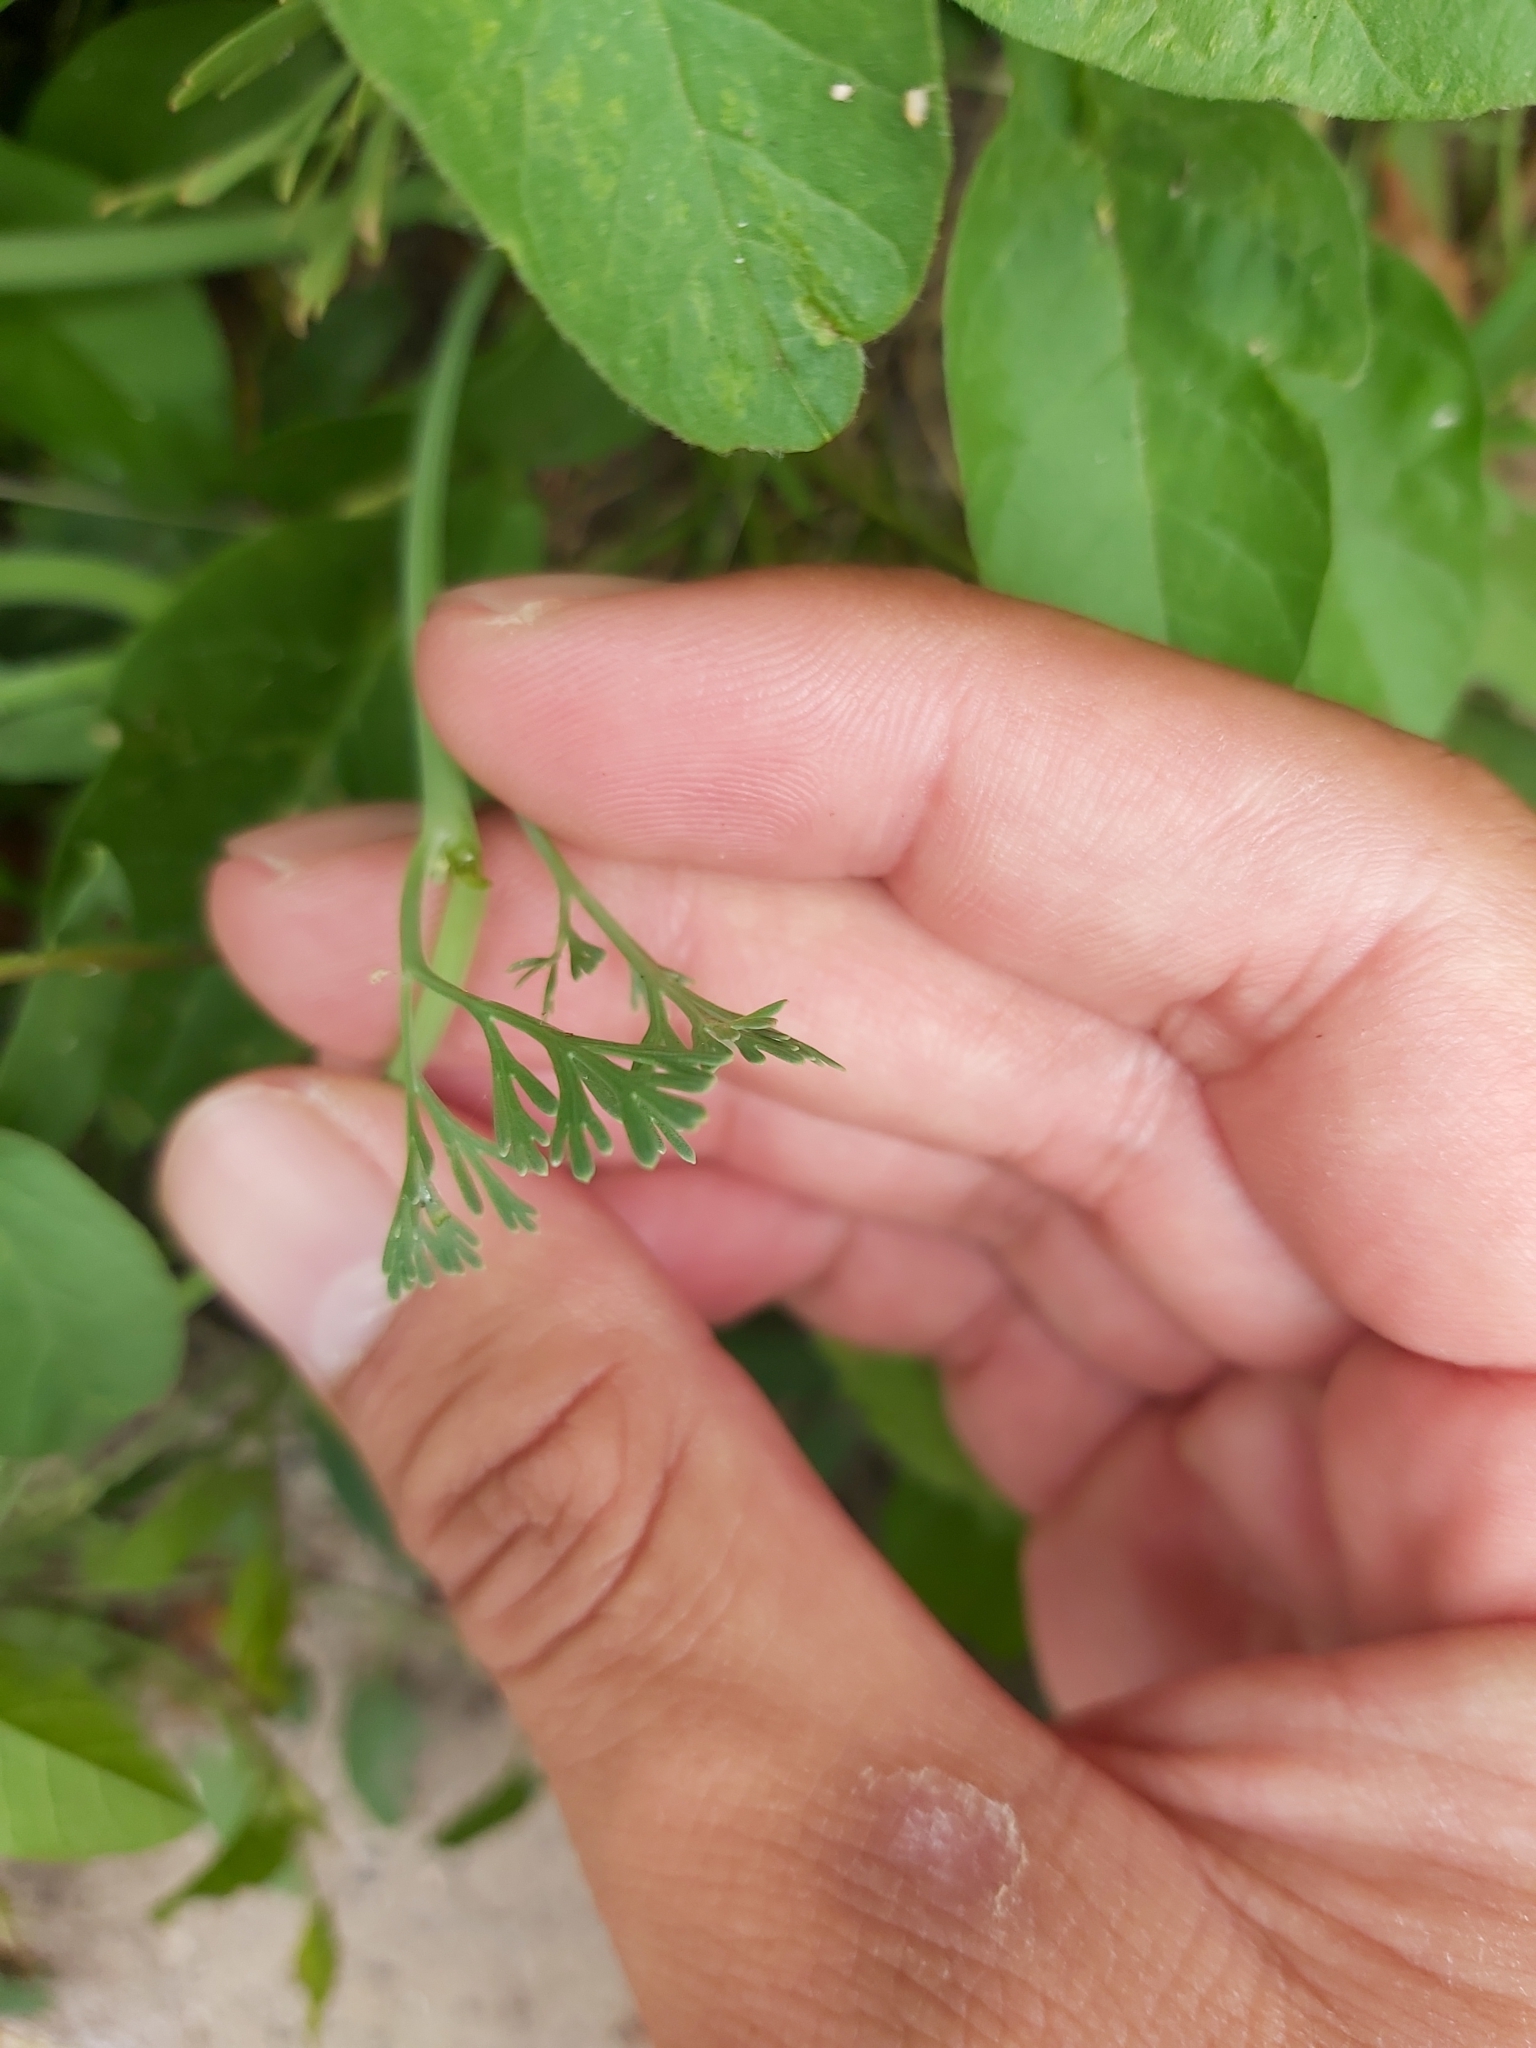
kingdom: Plantae
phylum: Tracheophyta
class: Magnoliopsida
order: Ranunculales
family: Papaveraceae
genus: Eschscholzia
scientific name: Eschscholzia californica
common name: California poppy
